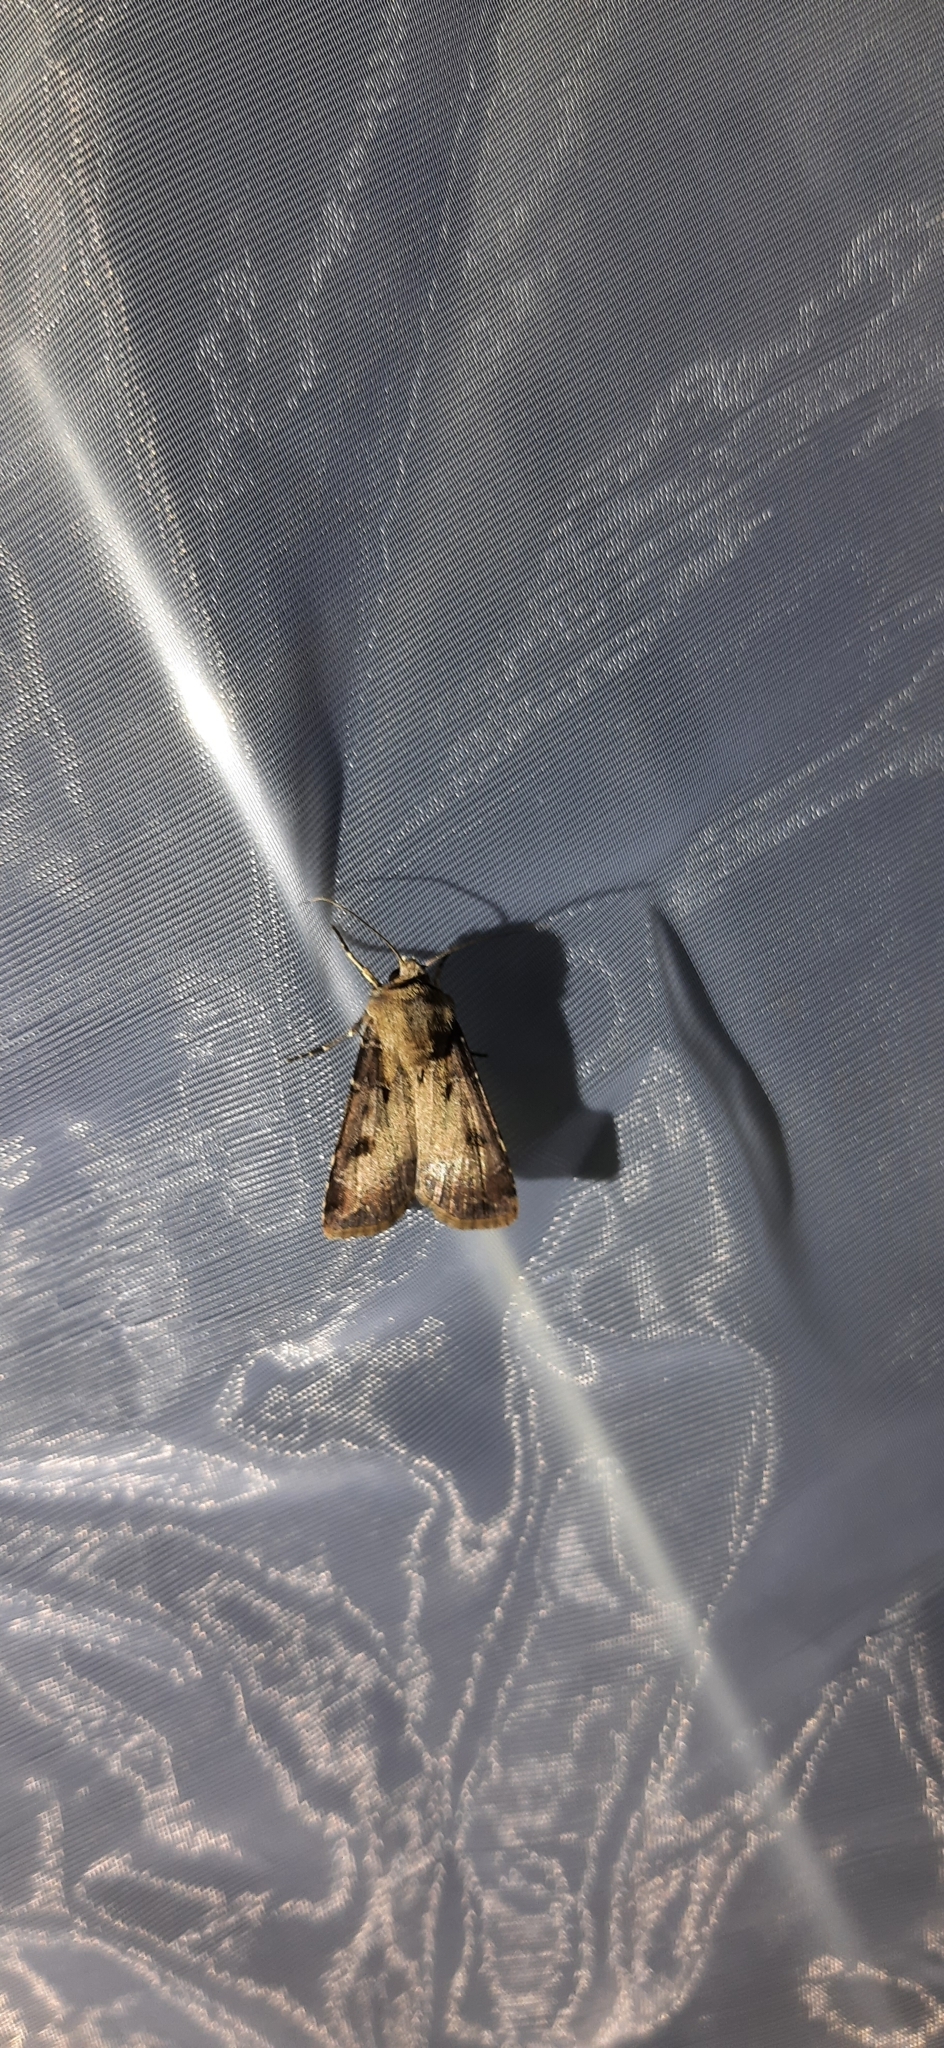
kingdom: Animalia
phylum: Arthropoda
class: Insecta
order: Lepidoptera
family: Noctuidae
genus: Agrotis
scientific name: Agrotis exclamationis
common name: Heart and dart
